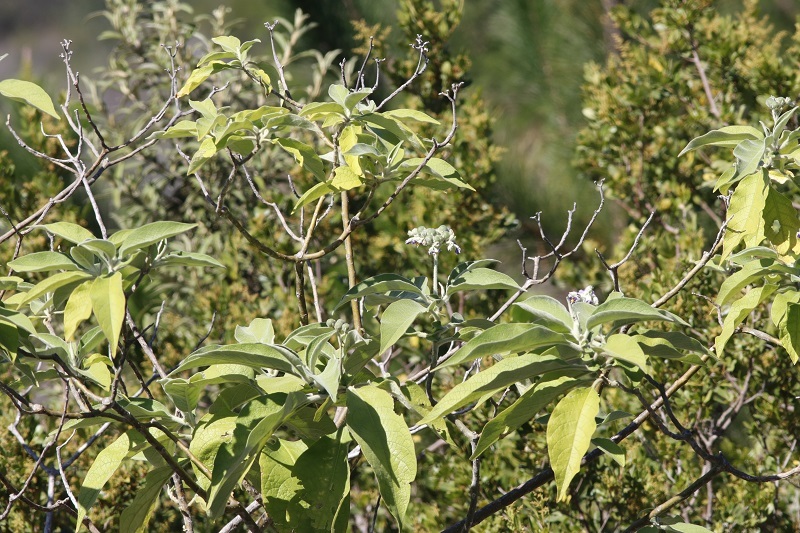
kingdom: Plantae
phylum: Tracheophyta
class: Magnoliopsida
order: Solanales
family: Solanaceae
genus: Solanum
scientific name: Solanum mauritianum
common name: Earleaf nightshade
